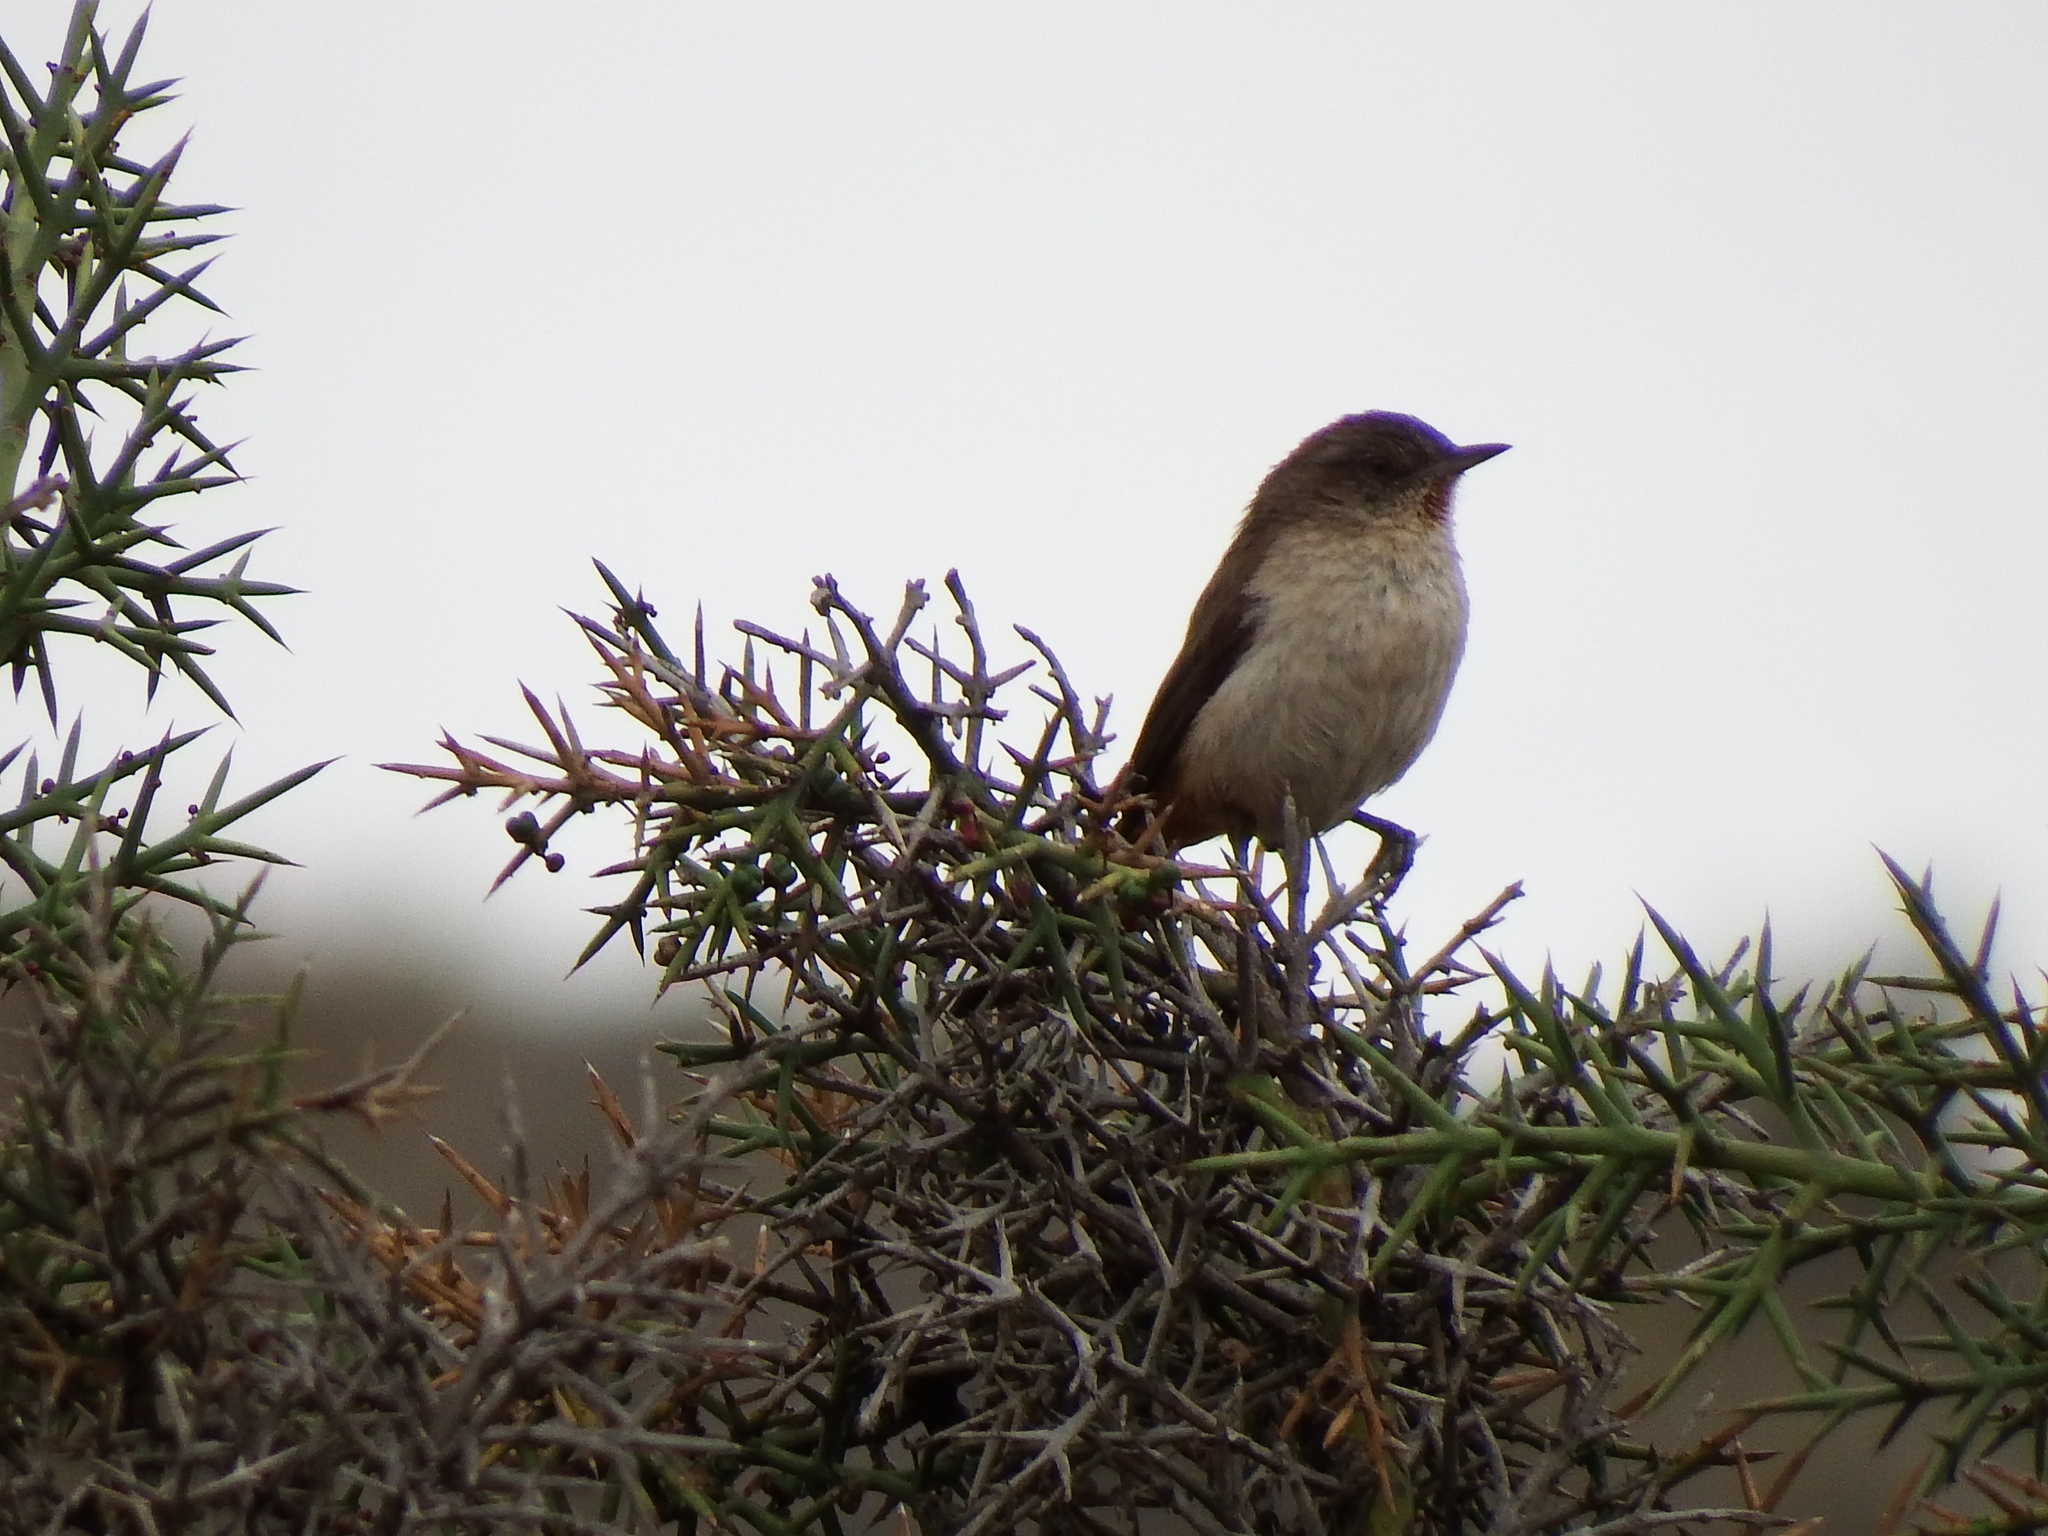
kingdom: Animalia
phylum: Chordata
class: Aves
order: Passeriformes
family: Furnariidae
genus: Asthenes
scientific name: Asthenes dorbignyi
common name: Rusty-vented canastero
